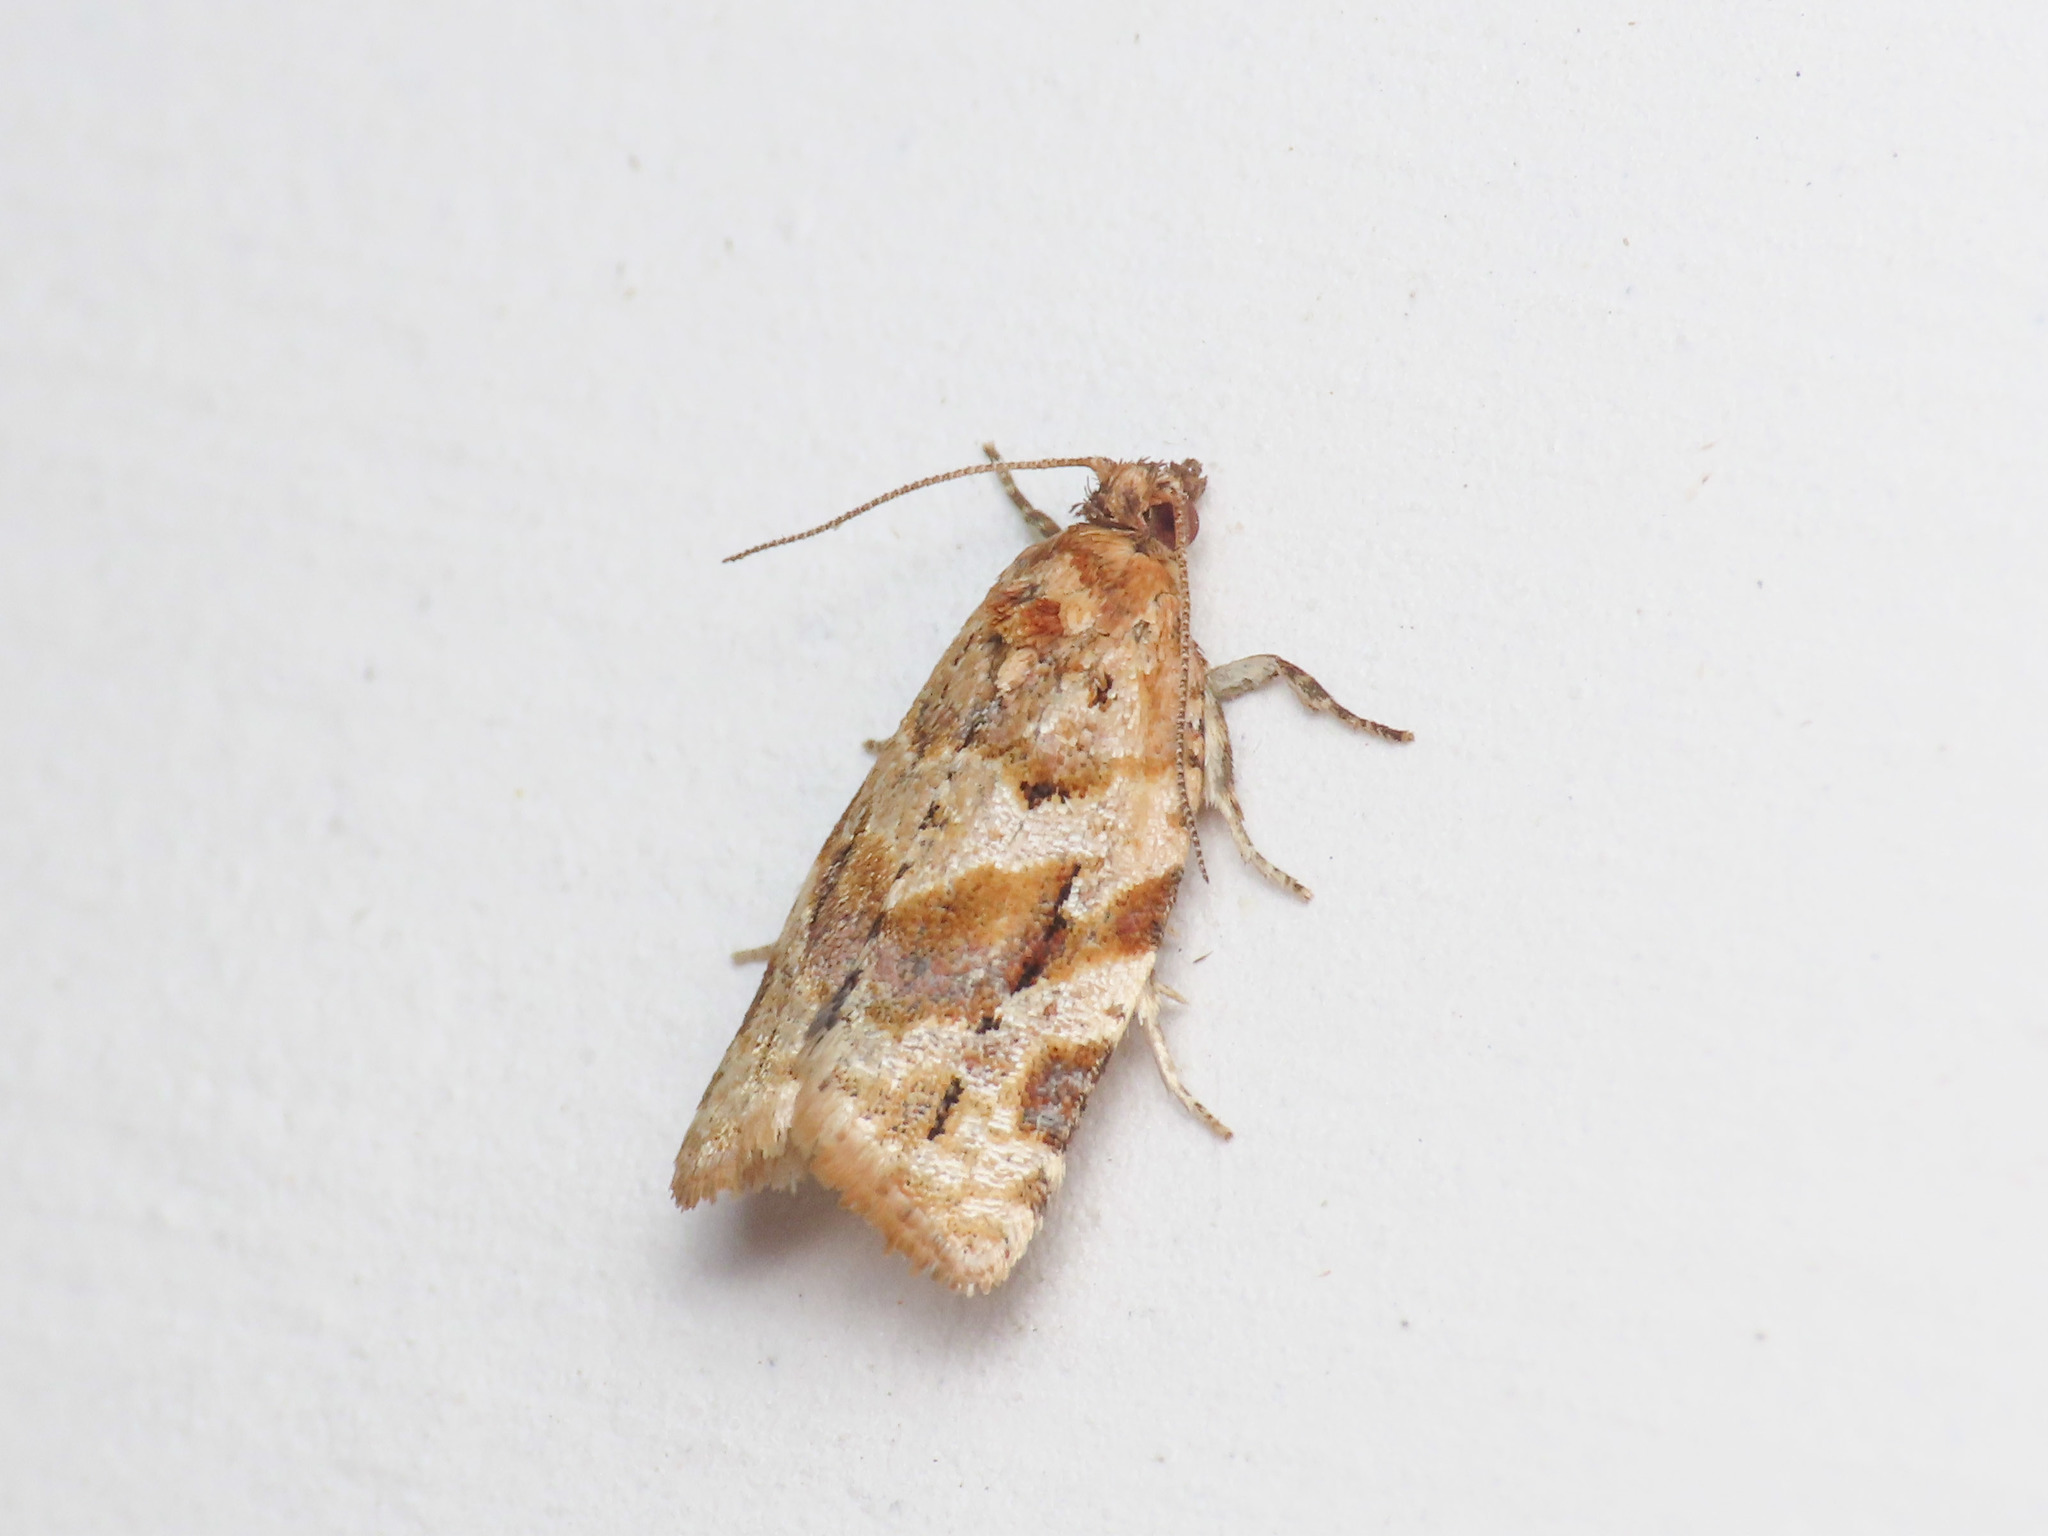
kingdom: Animalia
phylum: Arthropoda
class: Insecta
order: Lepidoptera
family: Tortricidae
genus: Argyrotaenia
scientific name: Argyrotaenia ljungiana
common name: Heather twist
